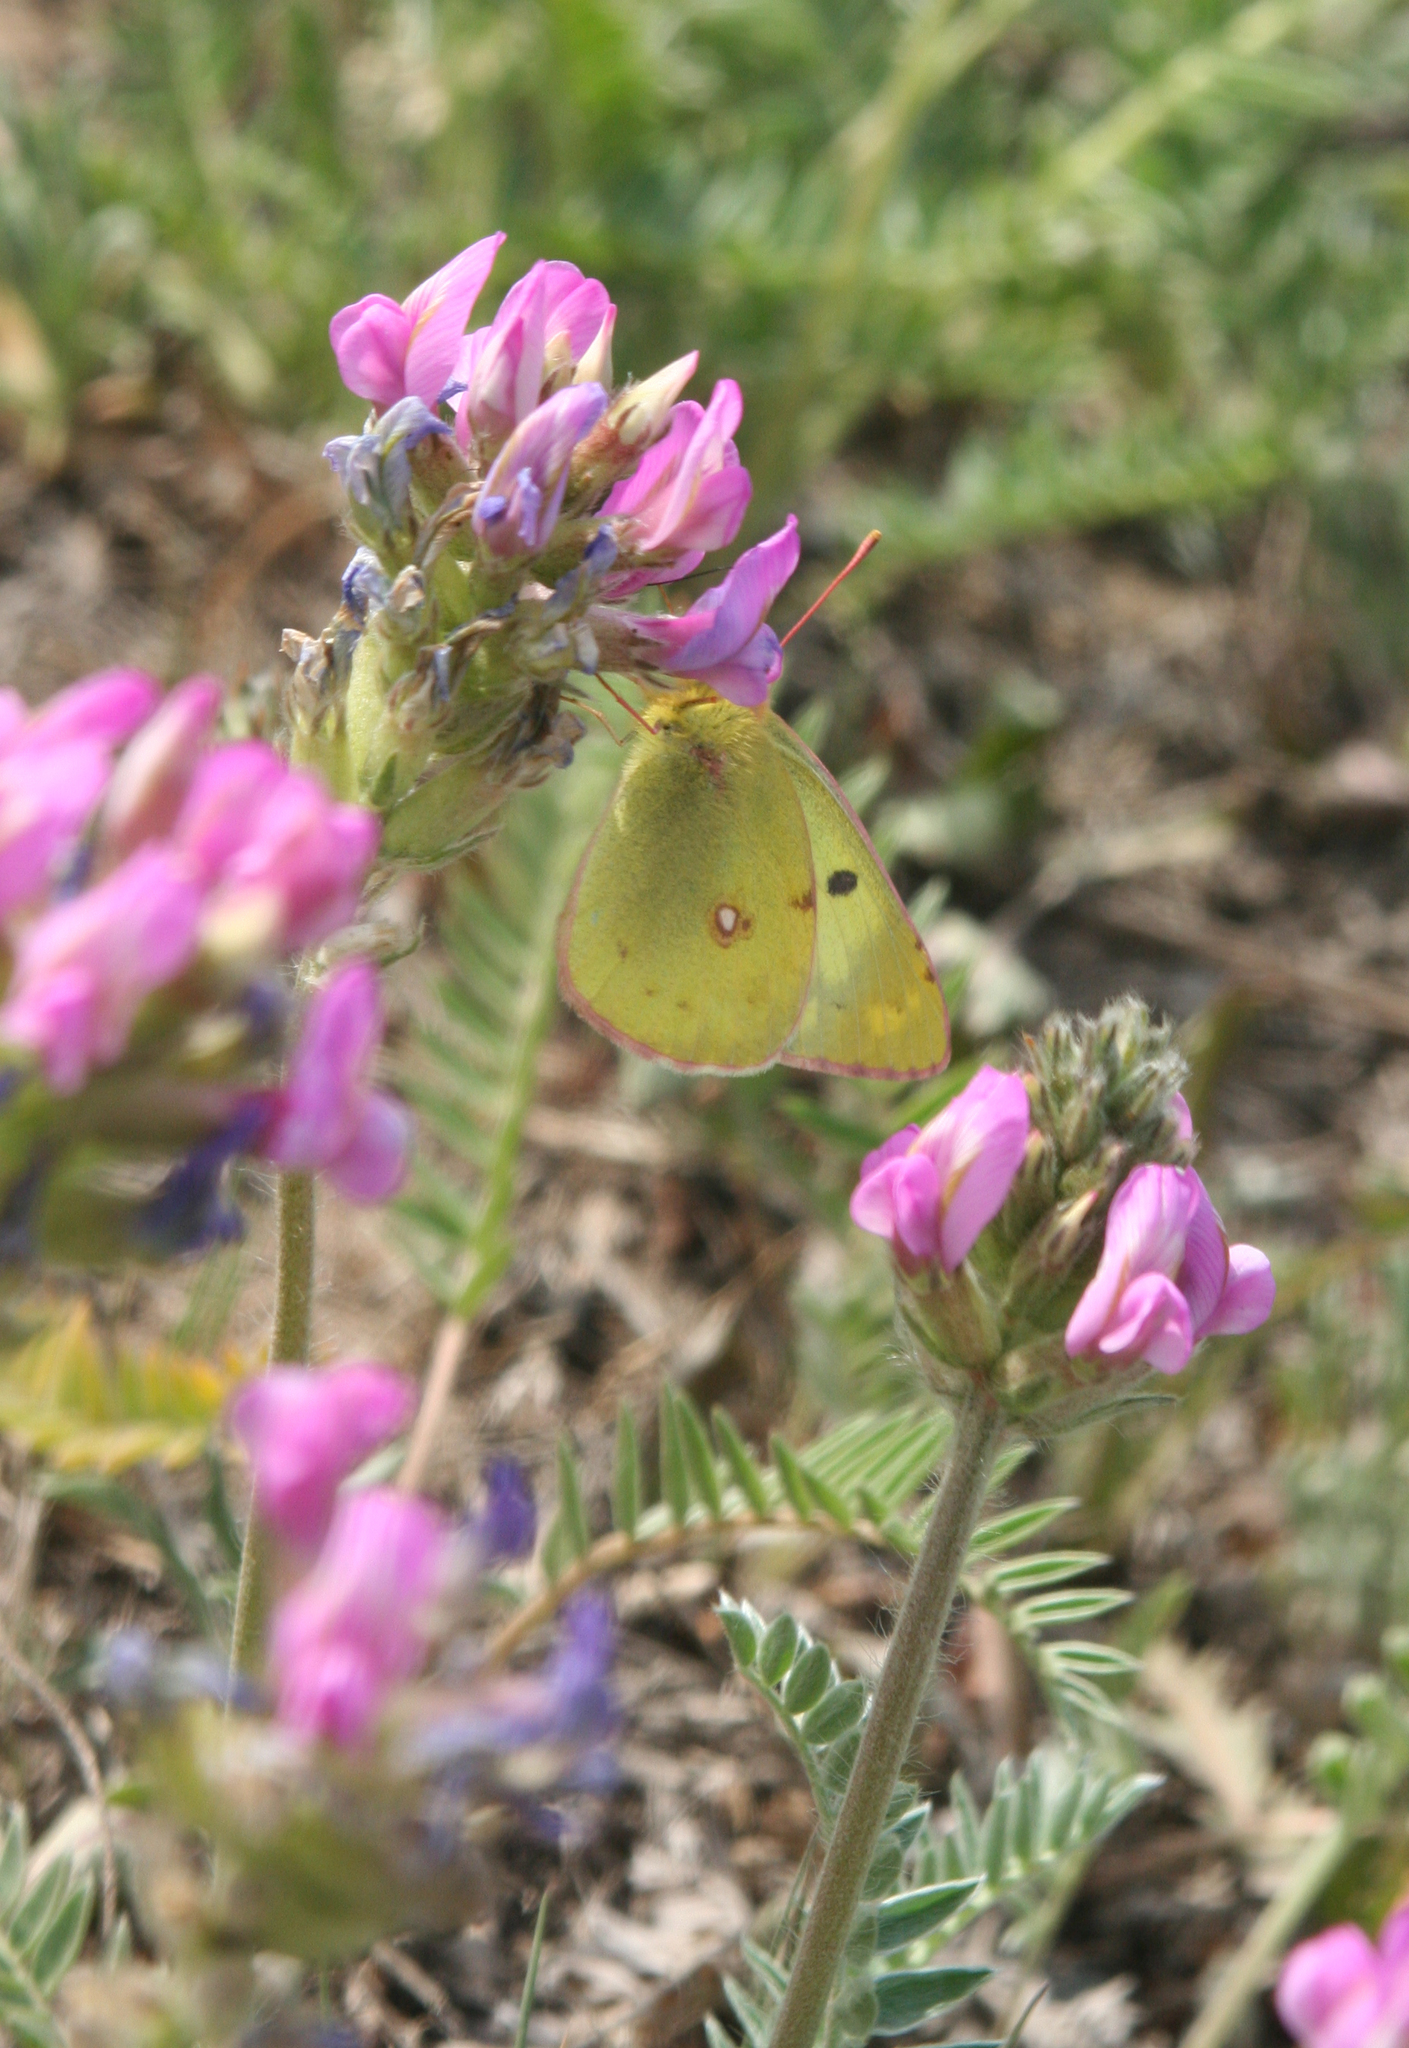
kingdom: Plantae
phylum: Tracheophyta
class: Magnoliopsida
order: Fabales
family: Fabaceae
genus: Oxytropis
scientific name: Oxytropis strobilacea
